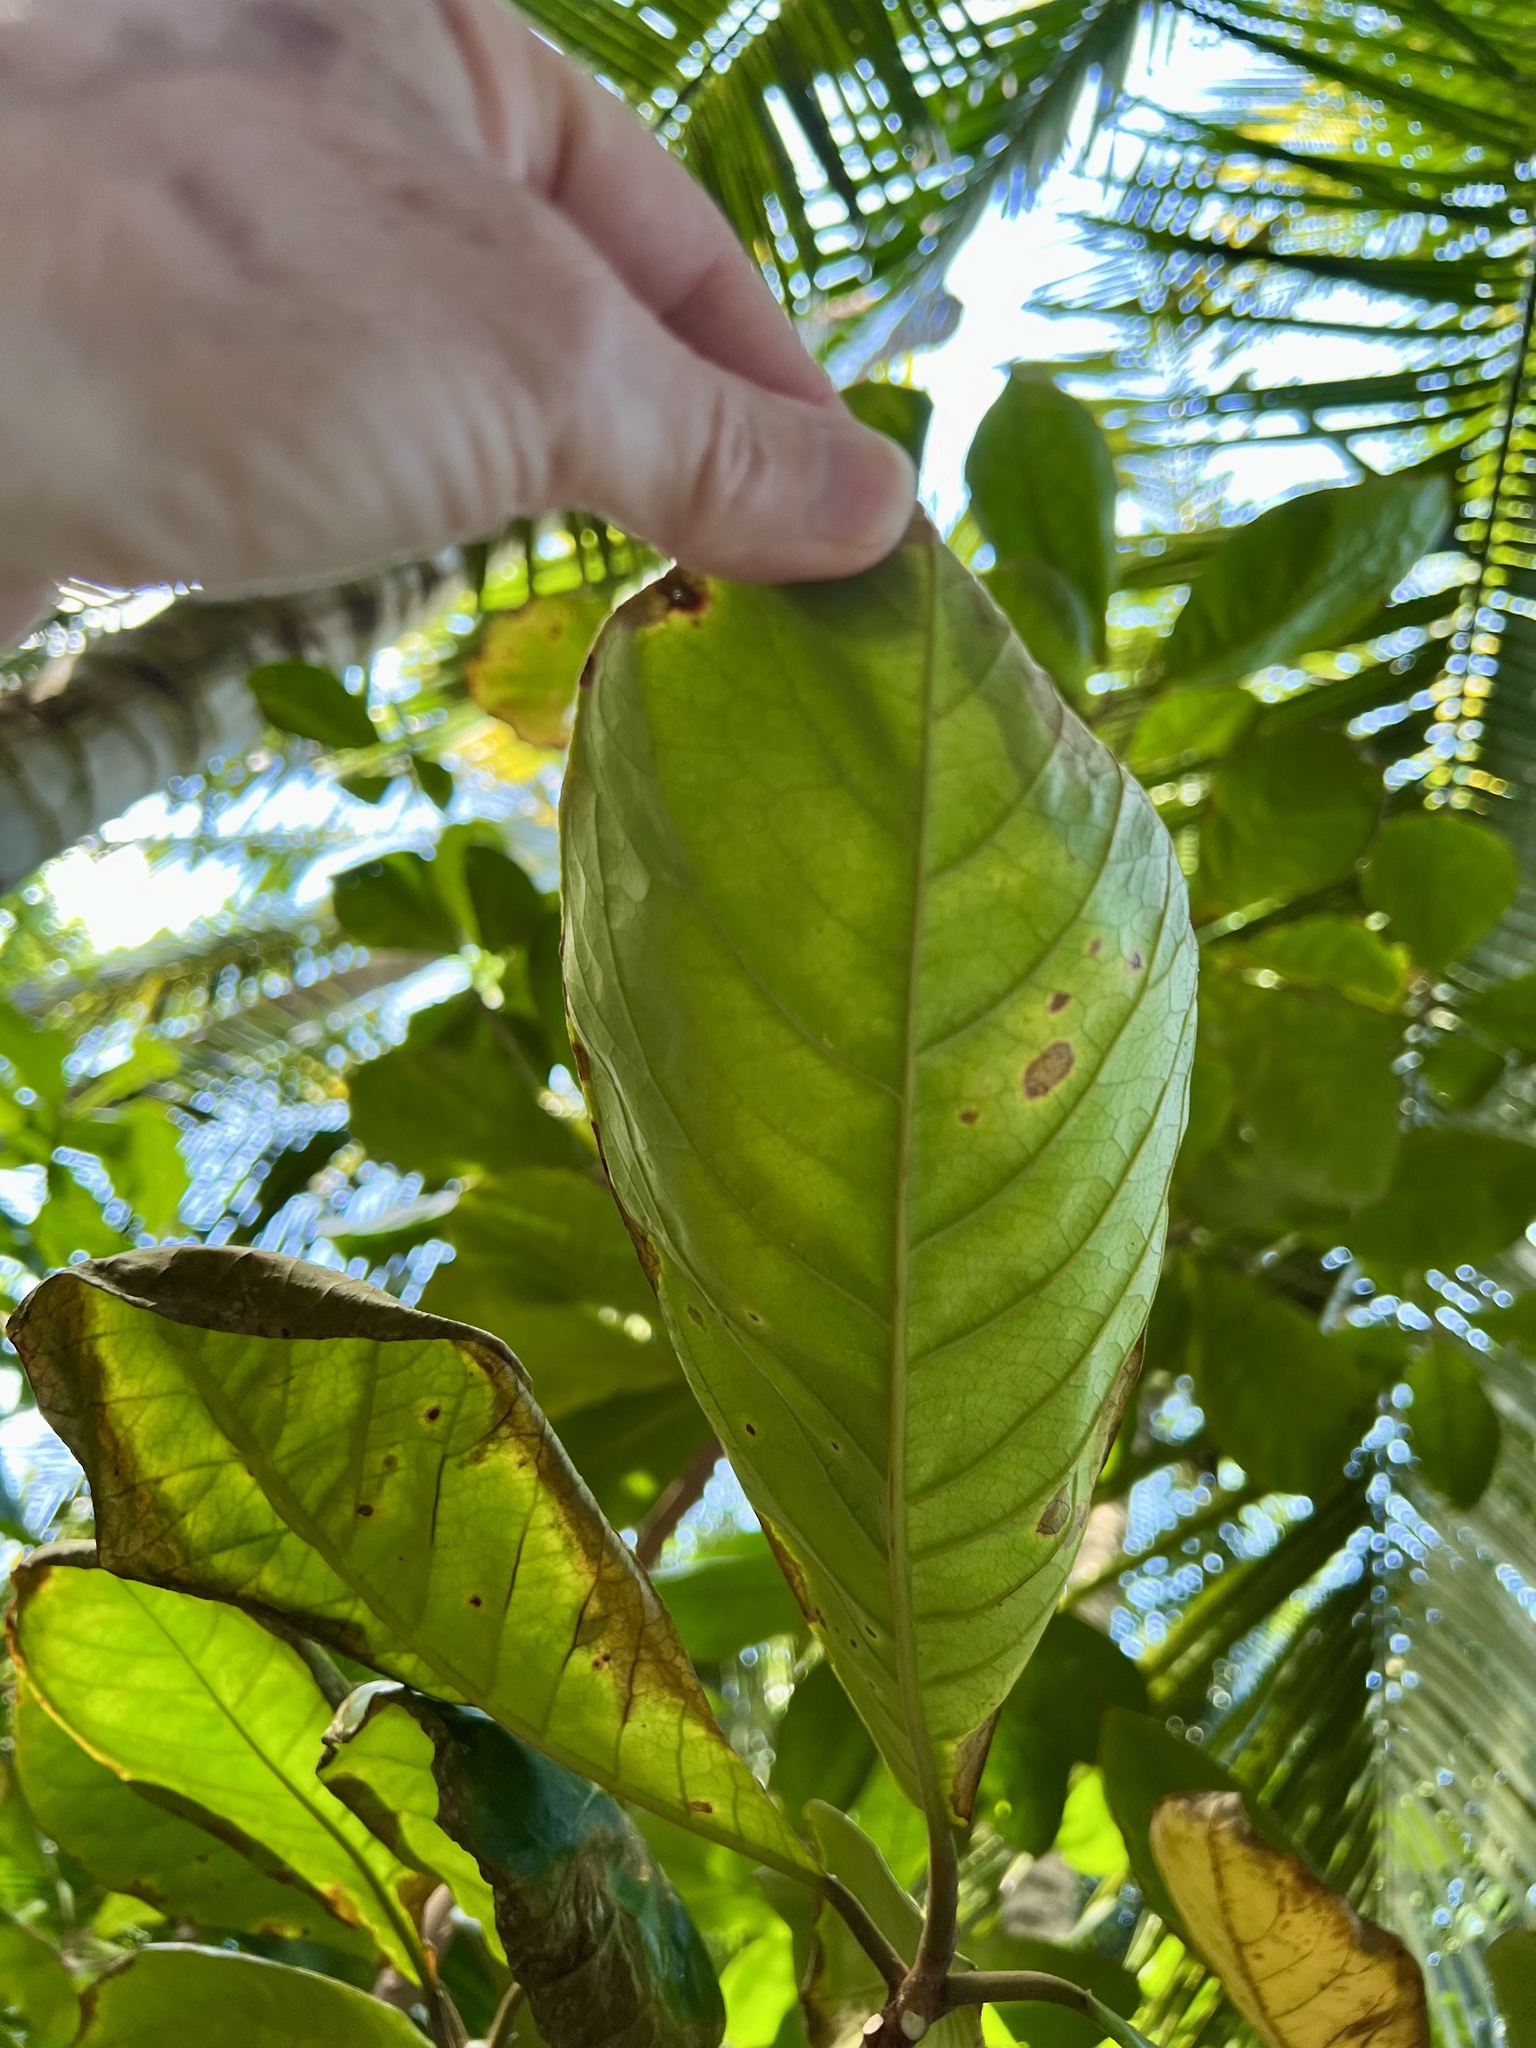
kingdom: Plantae
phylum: Tracheophyta
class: Magnoliopsida
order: Myrtales
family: Combretaceae
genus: Terminalia
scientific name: Terminalia catappa
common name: Tropical almond
